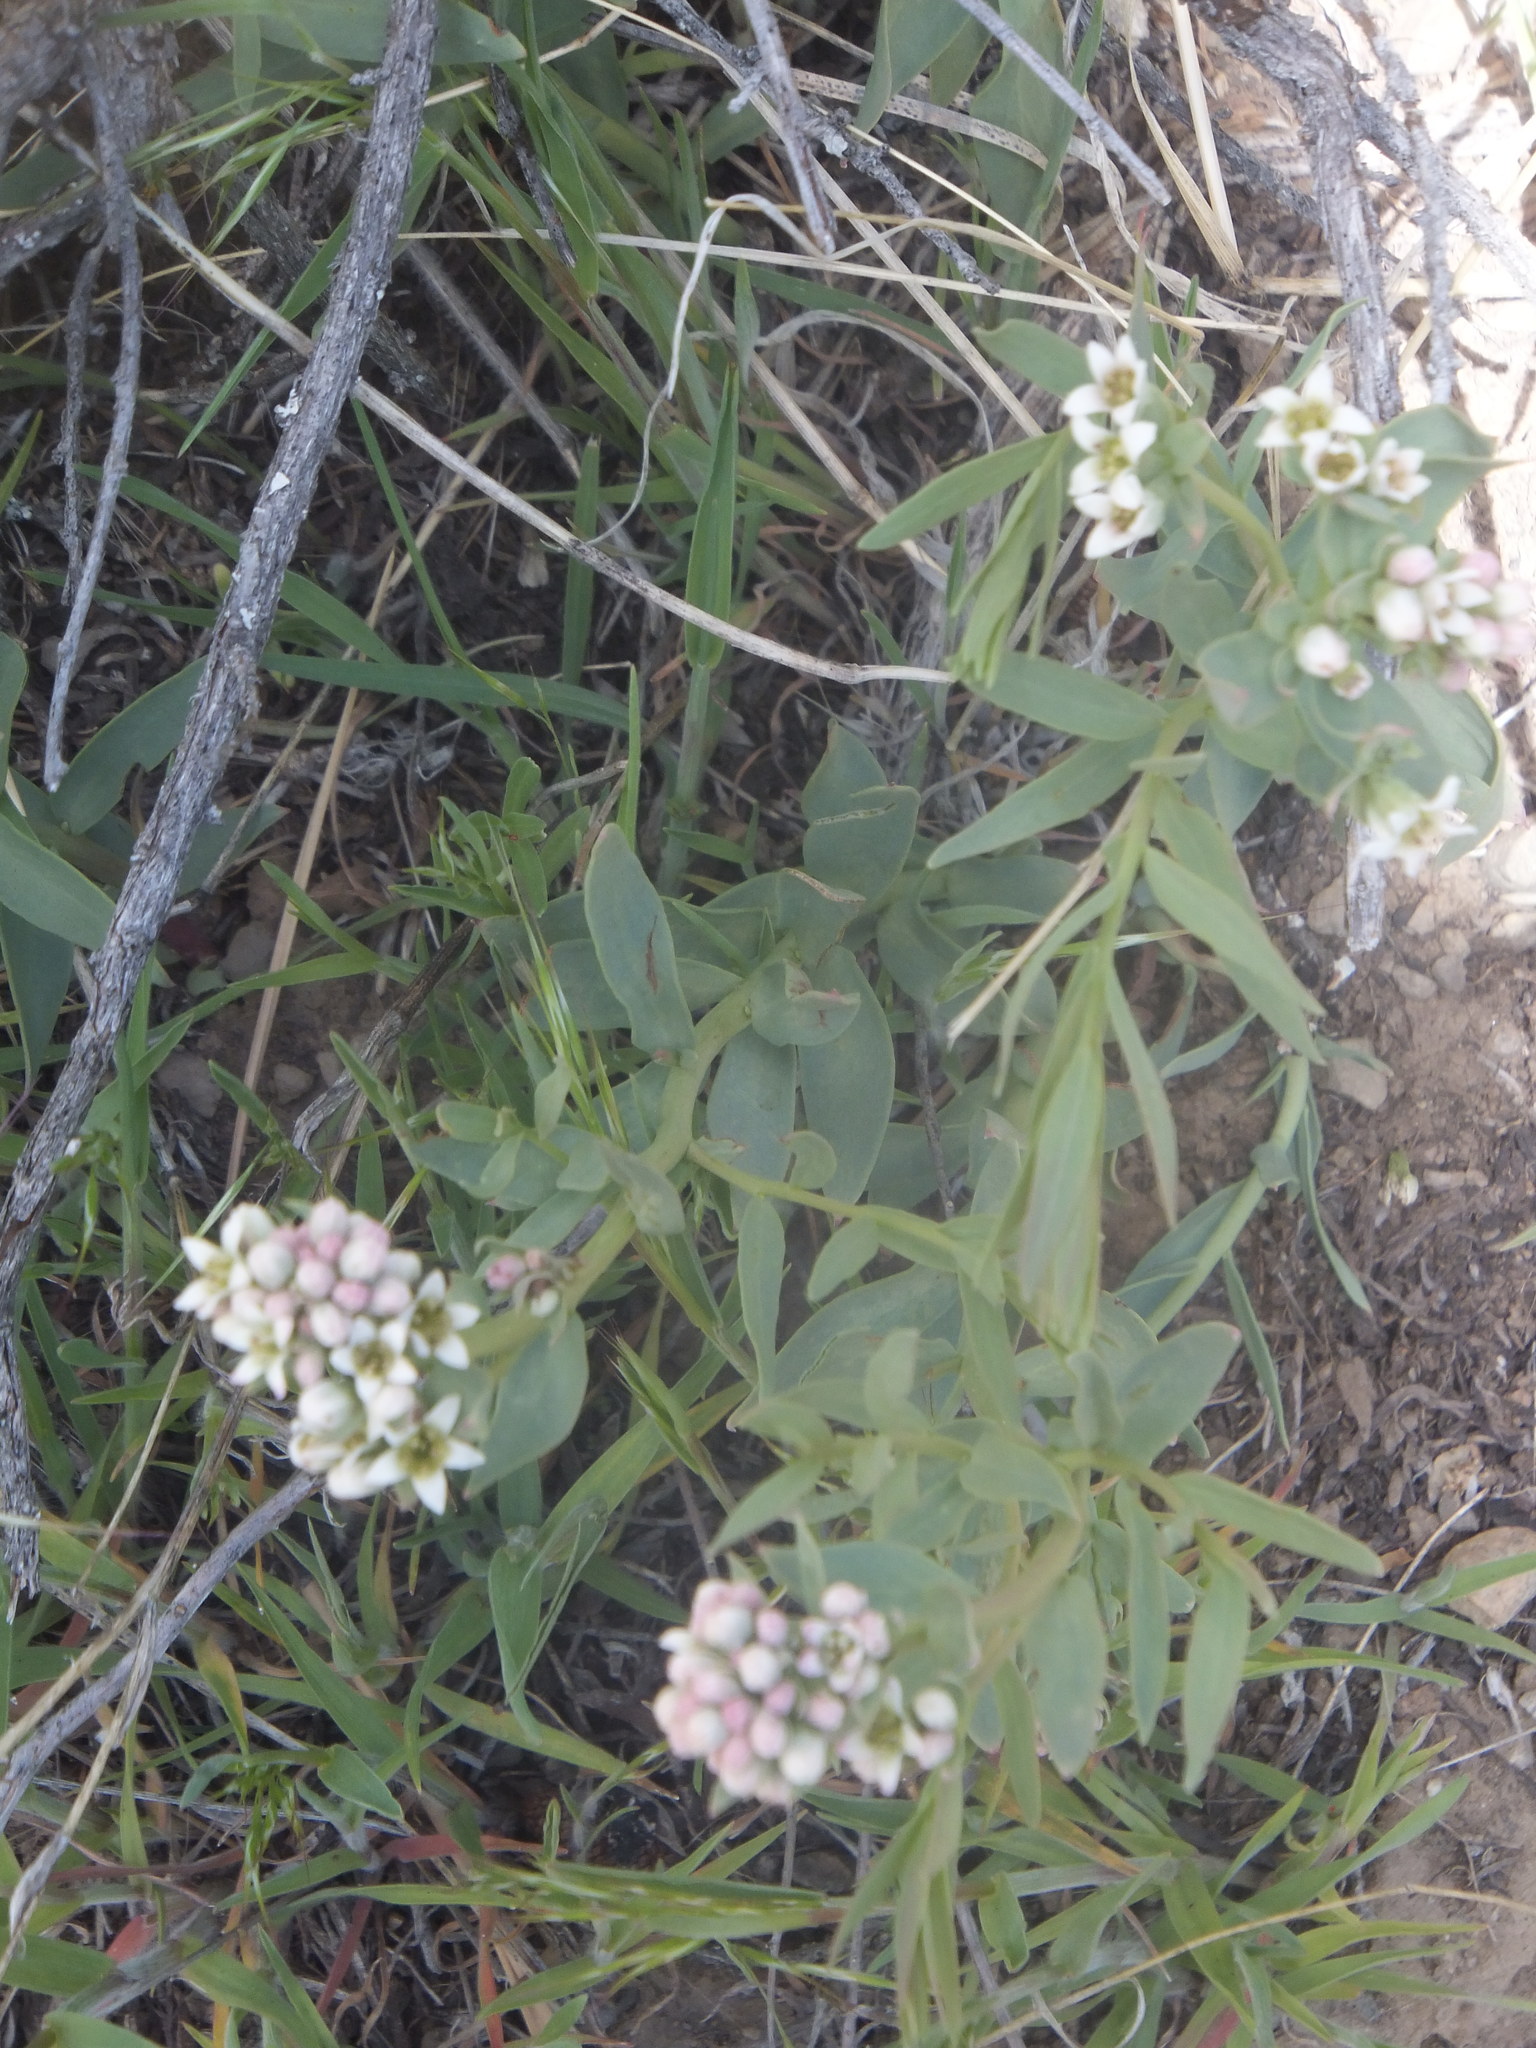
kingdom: Plantae
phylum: Tracheophyta
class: Magnoliopsida
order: Santalales
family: Comandraceae
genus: Comandra
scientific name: Comandra umbellata
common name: Bastard toadflax
